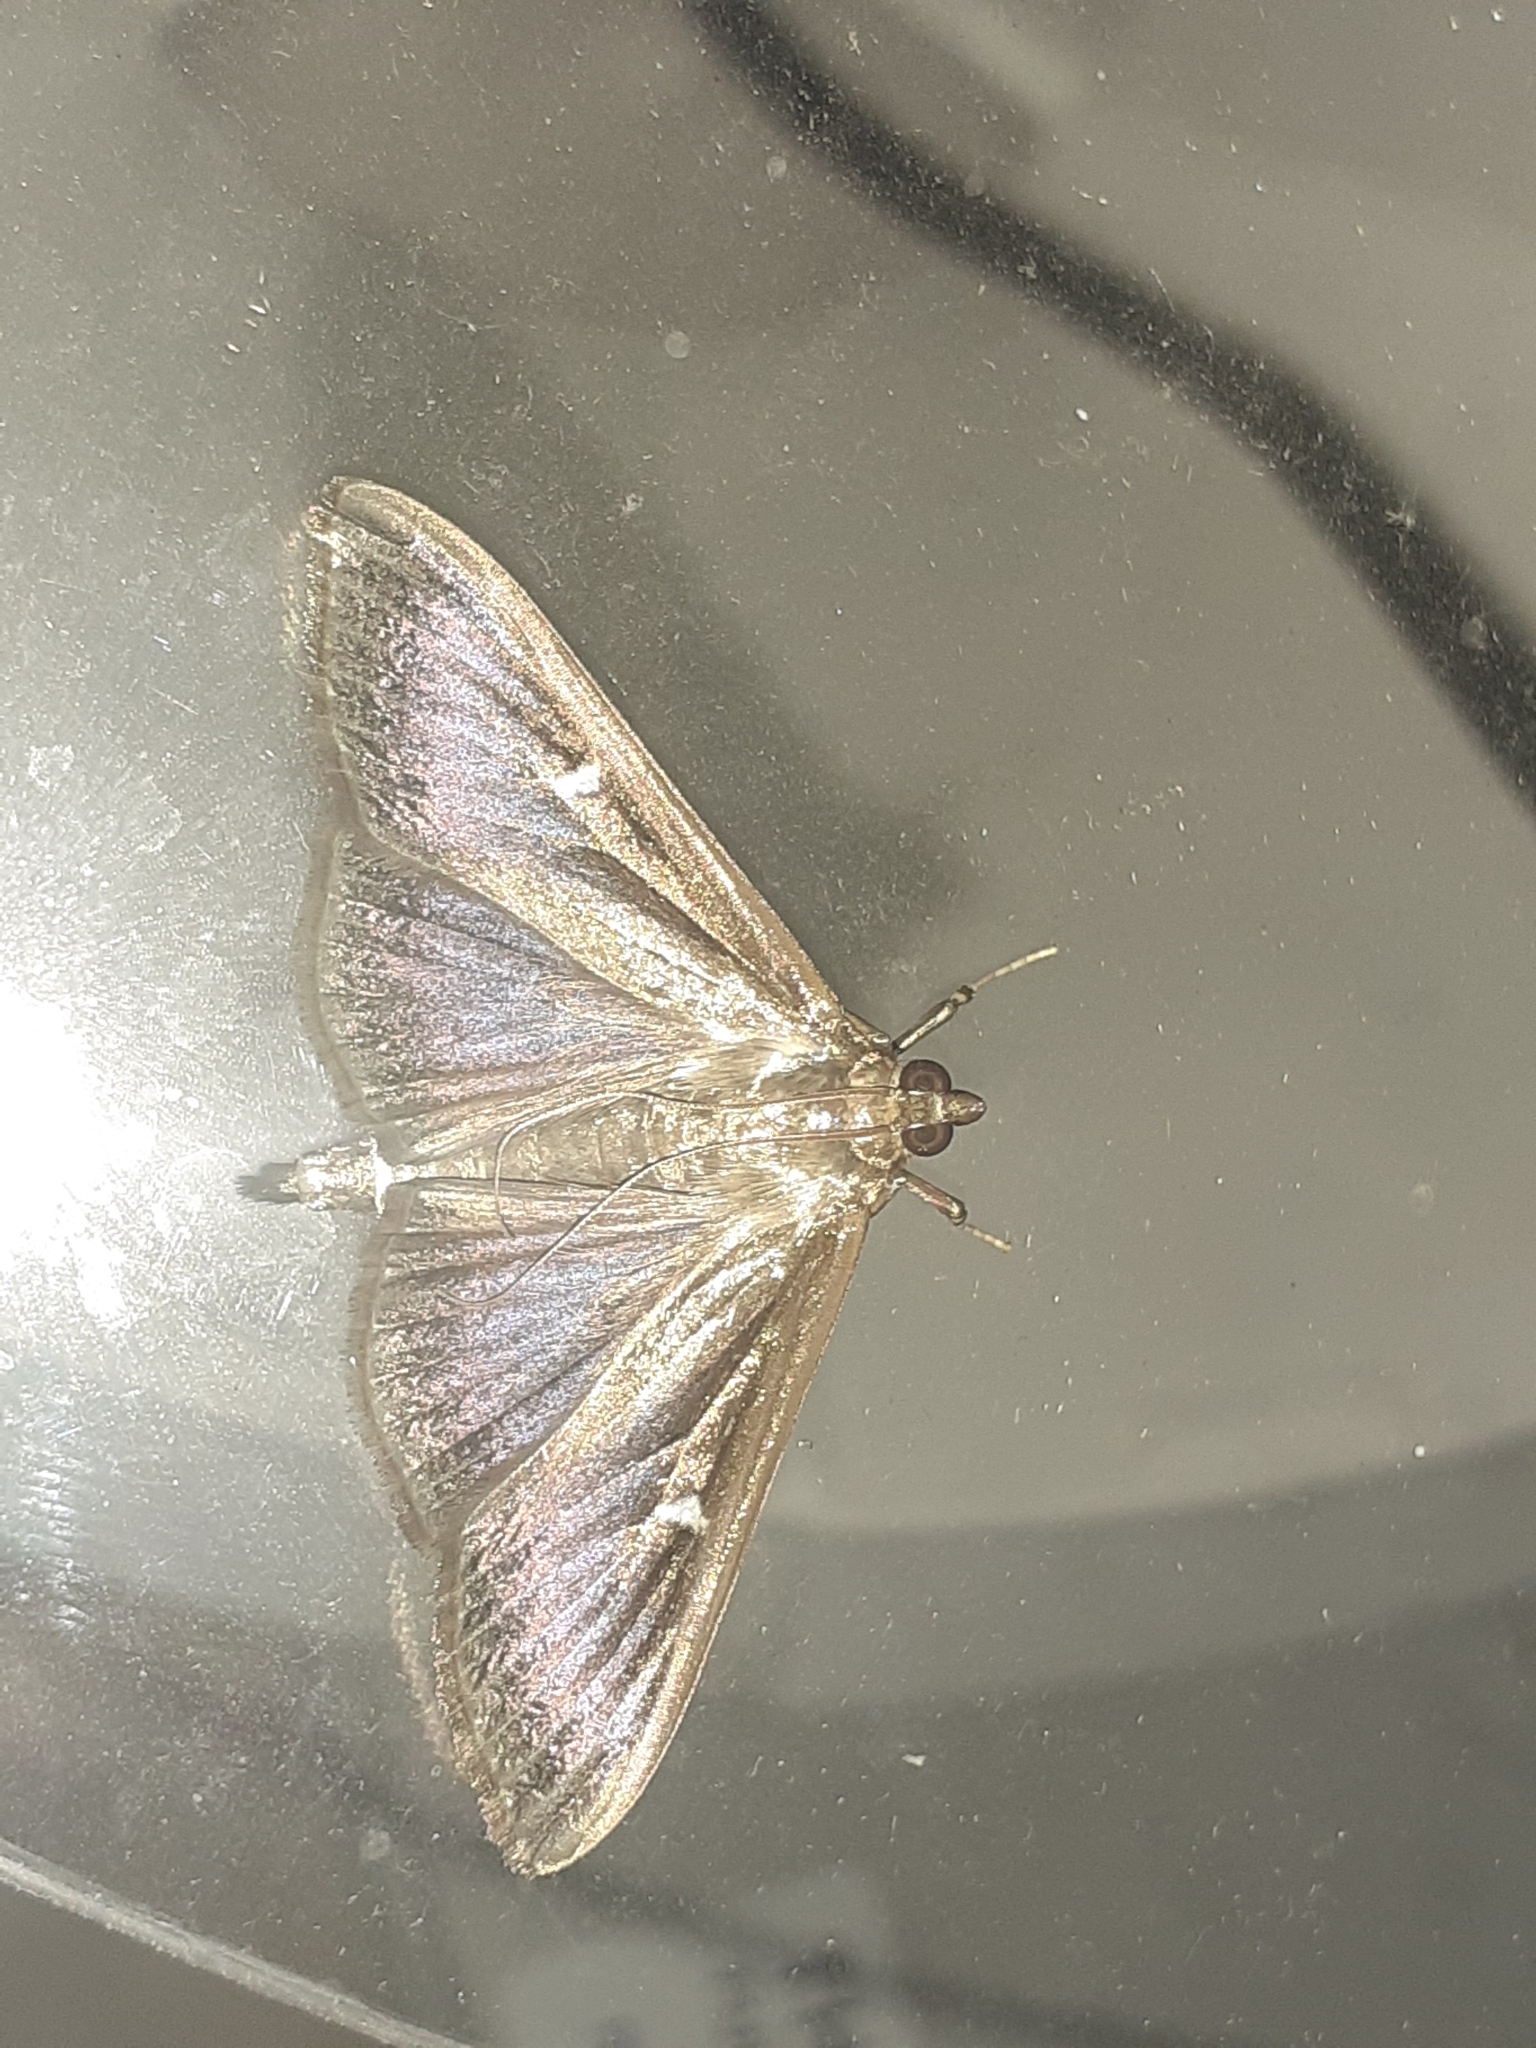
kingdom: Animalia
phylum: Arthropoda
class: Insecta
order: Lepidoptera
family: Crambidae
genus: Cydalima
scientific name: Cydalima perspectalis
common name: Box tree moth
